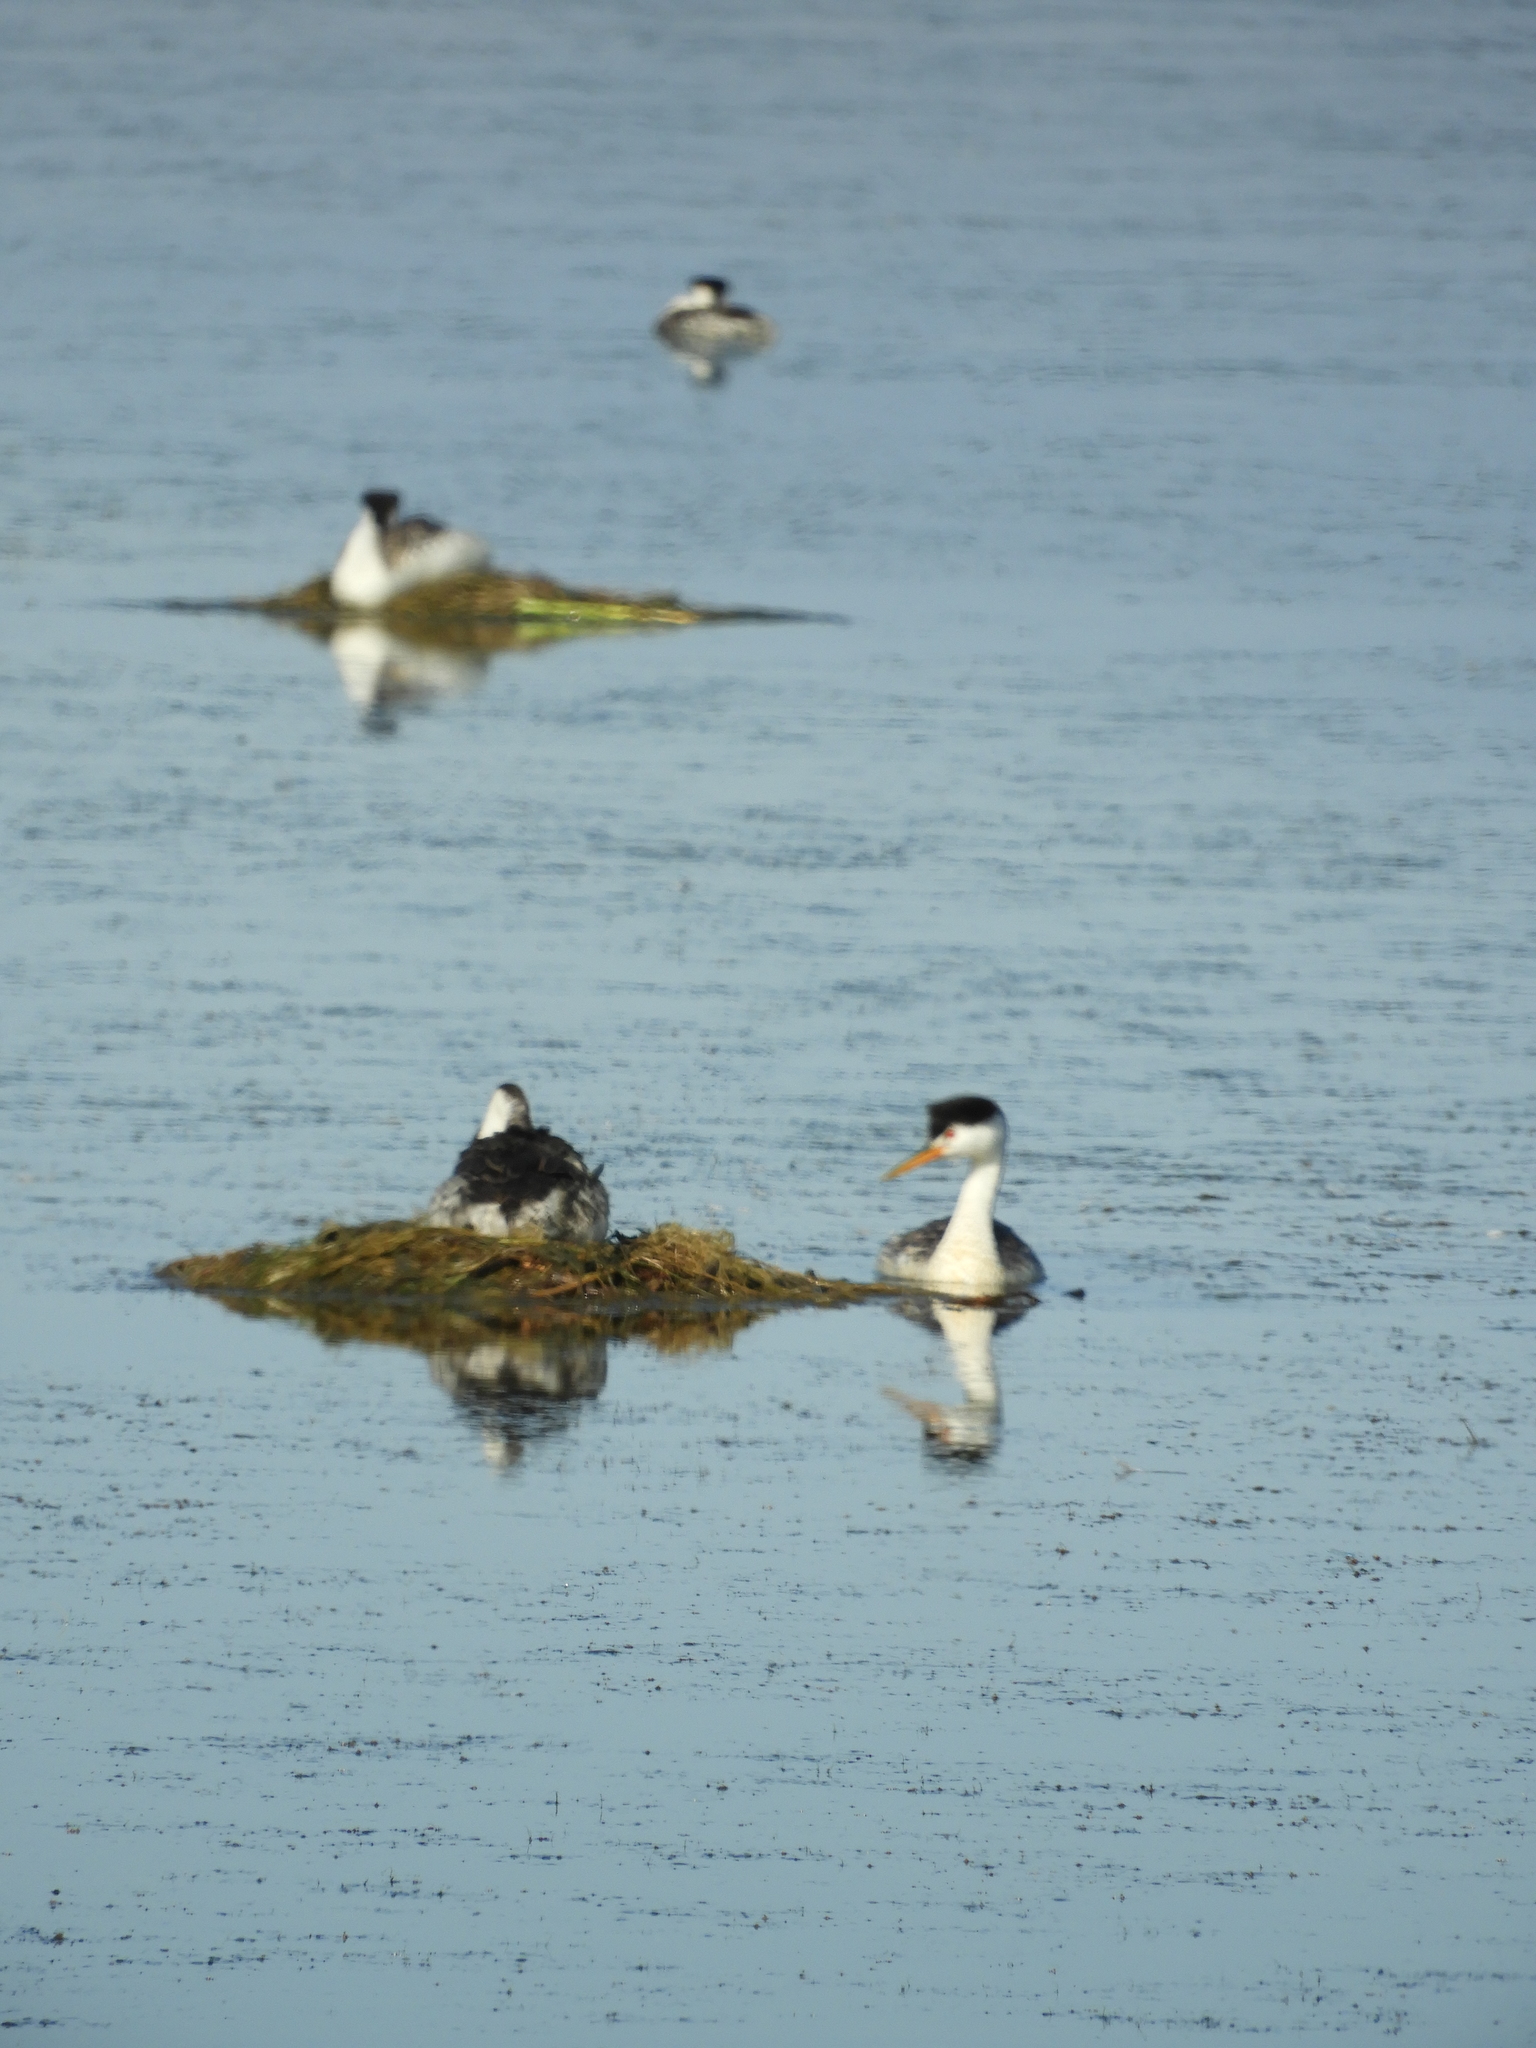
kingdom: Animalia
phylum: Chordata
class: Aves
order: Podicipediformes
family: Podicipedidae
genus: Aechmophorus
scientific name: Aechmophorus clarkii
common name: Clark's grebe
